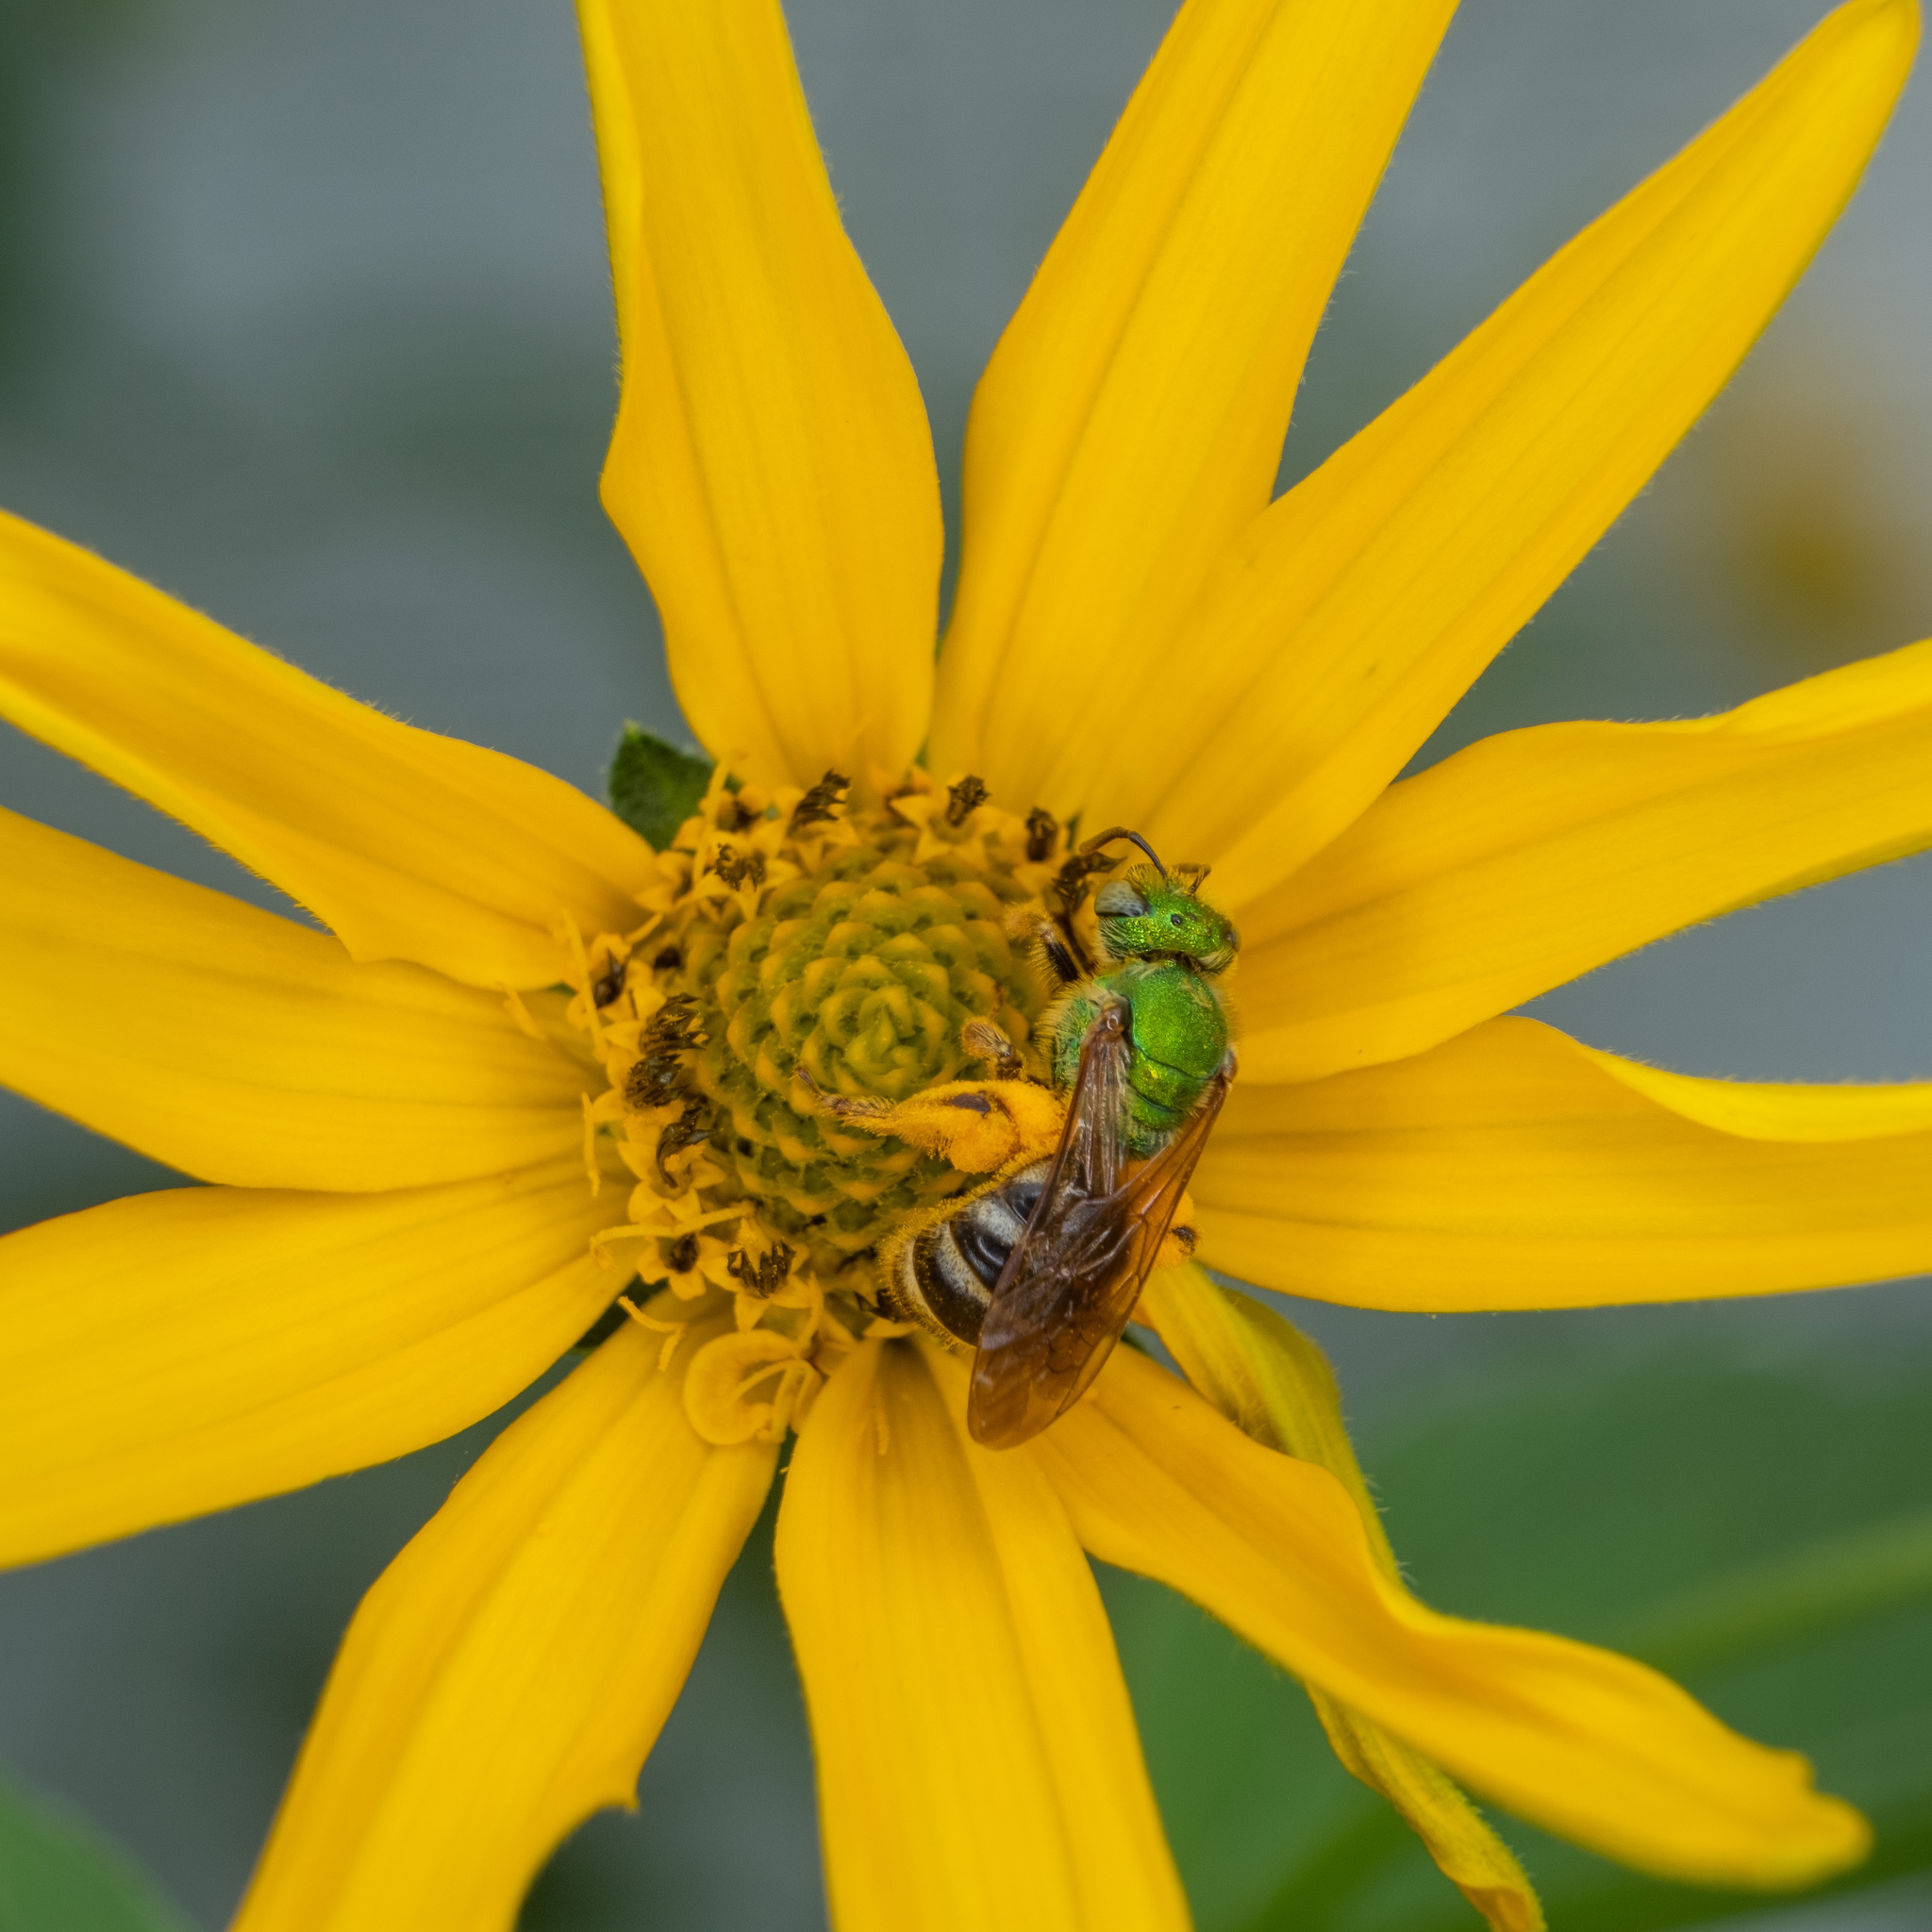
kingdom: Animalia
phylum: Arthropoda
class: Insecta
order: Hymenoptera
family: Halictidae
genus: Agapostemon
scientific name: Agapostemon virescens
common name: Bicolored striped sweat bee
